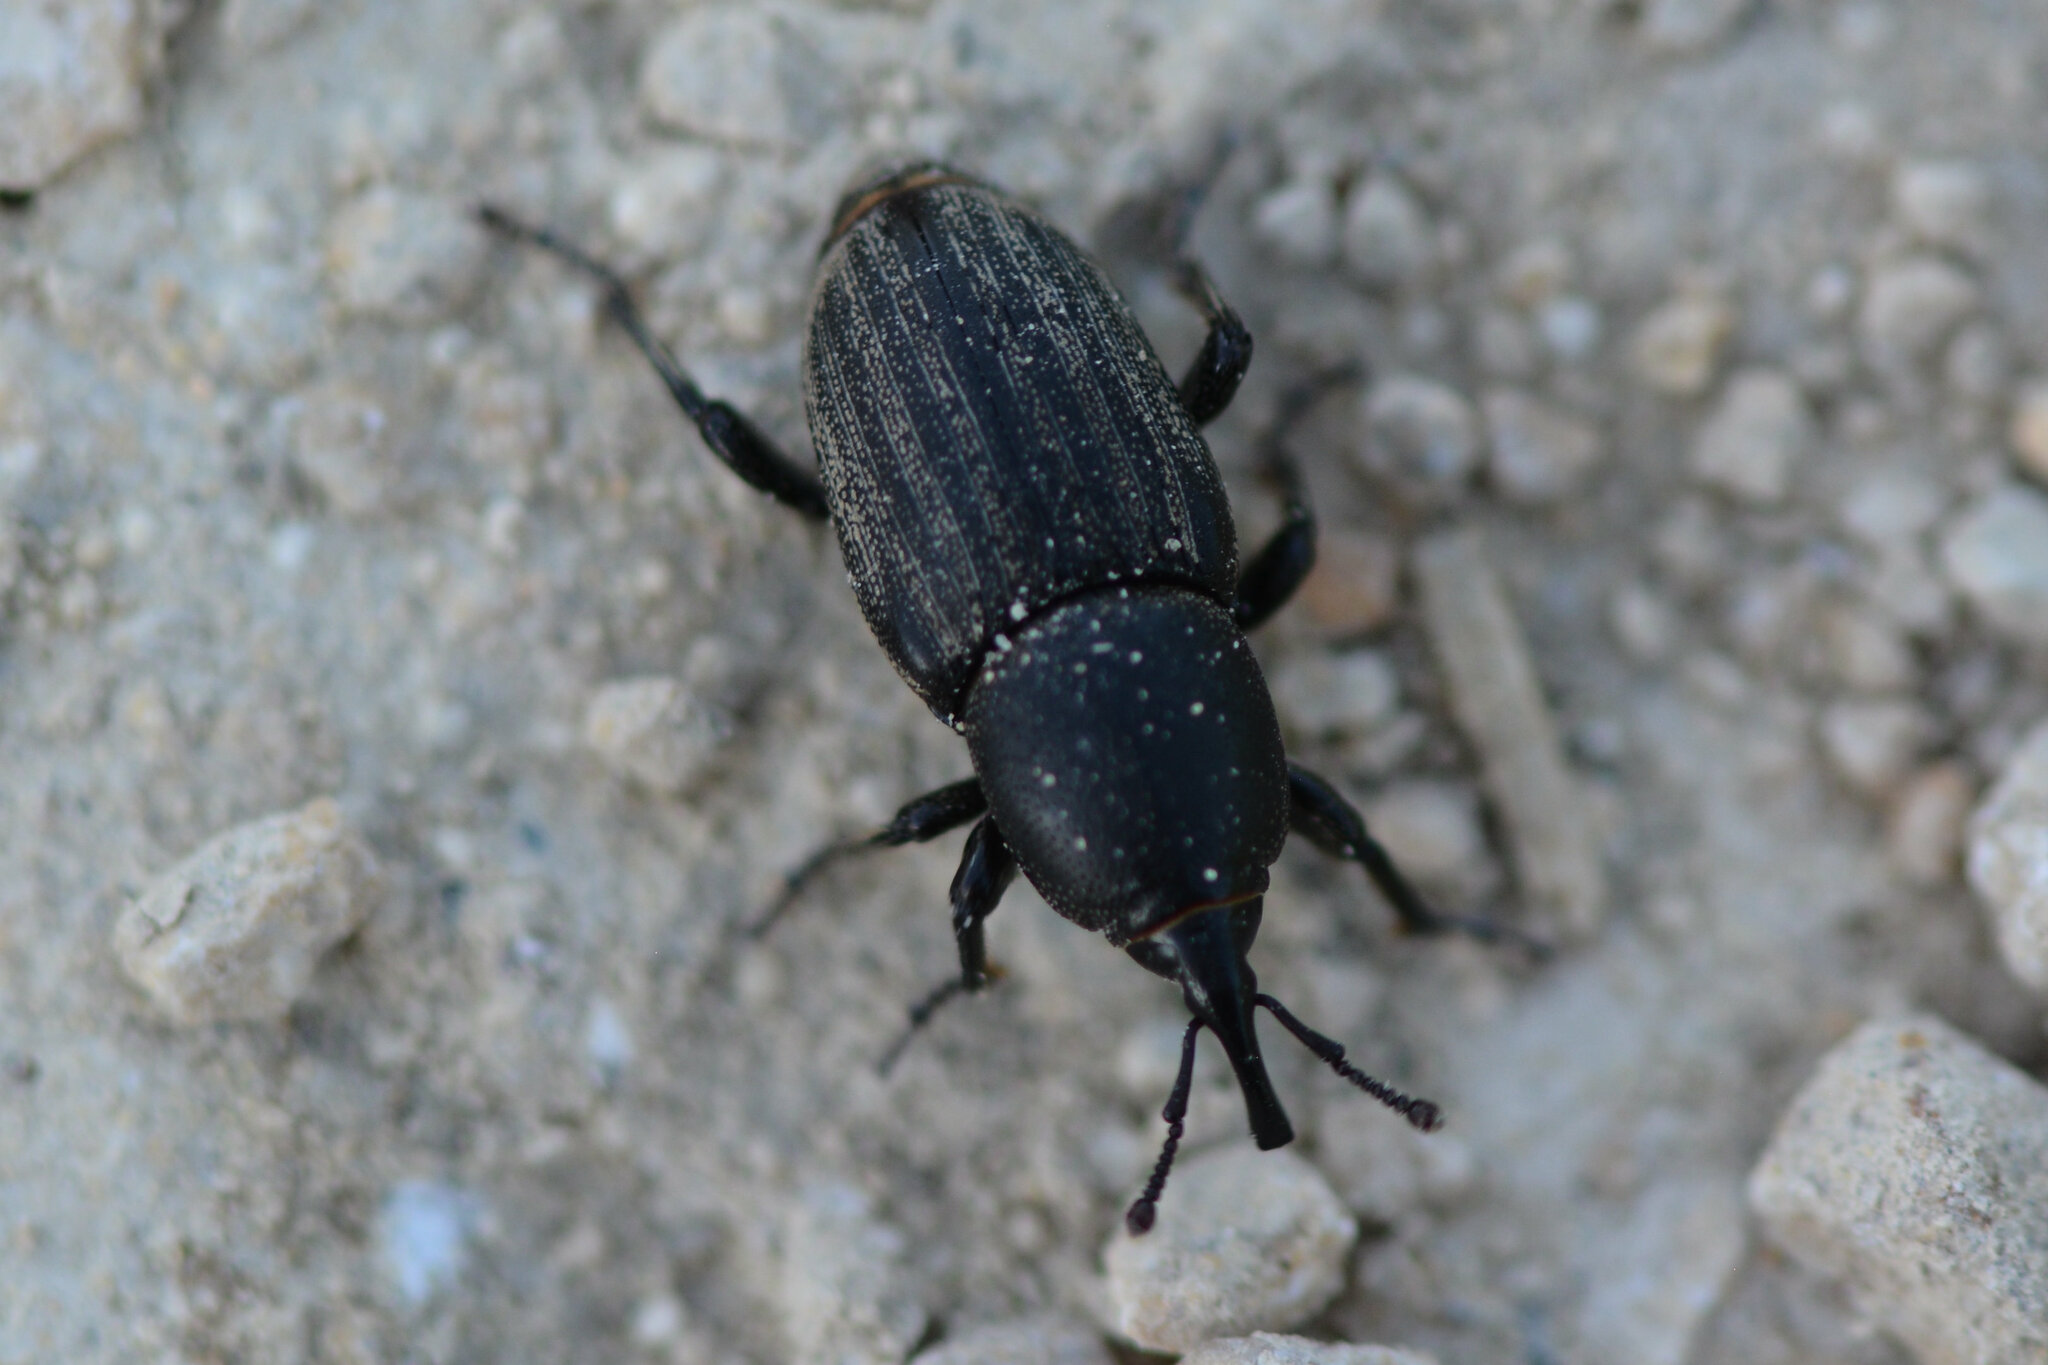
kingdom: Animalia
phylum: Arthropoda
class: Insecta
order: Coleoptera
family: Dryophthoridae
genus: Sphenophorus
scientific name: Sphenophorus striatopunctatus
